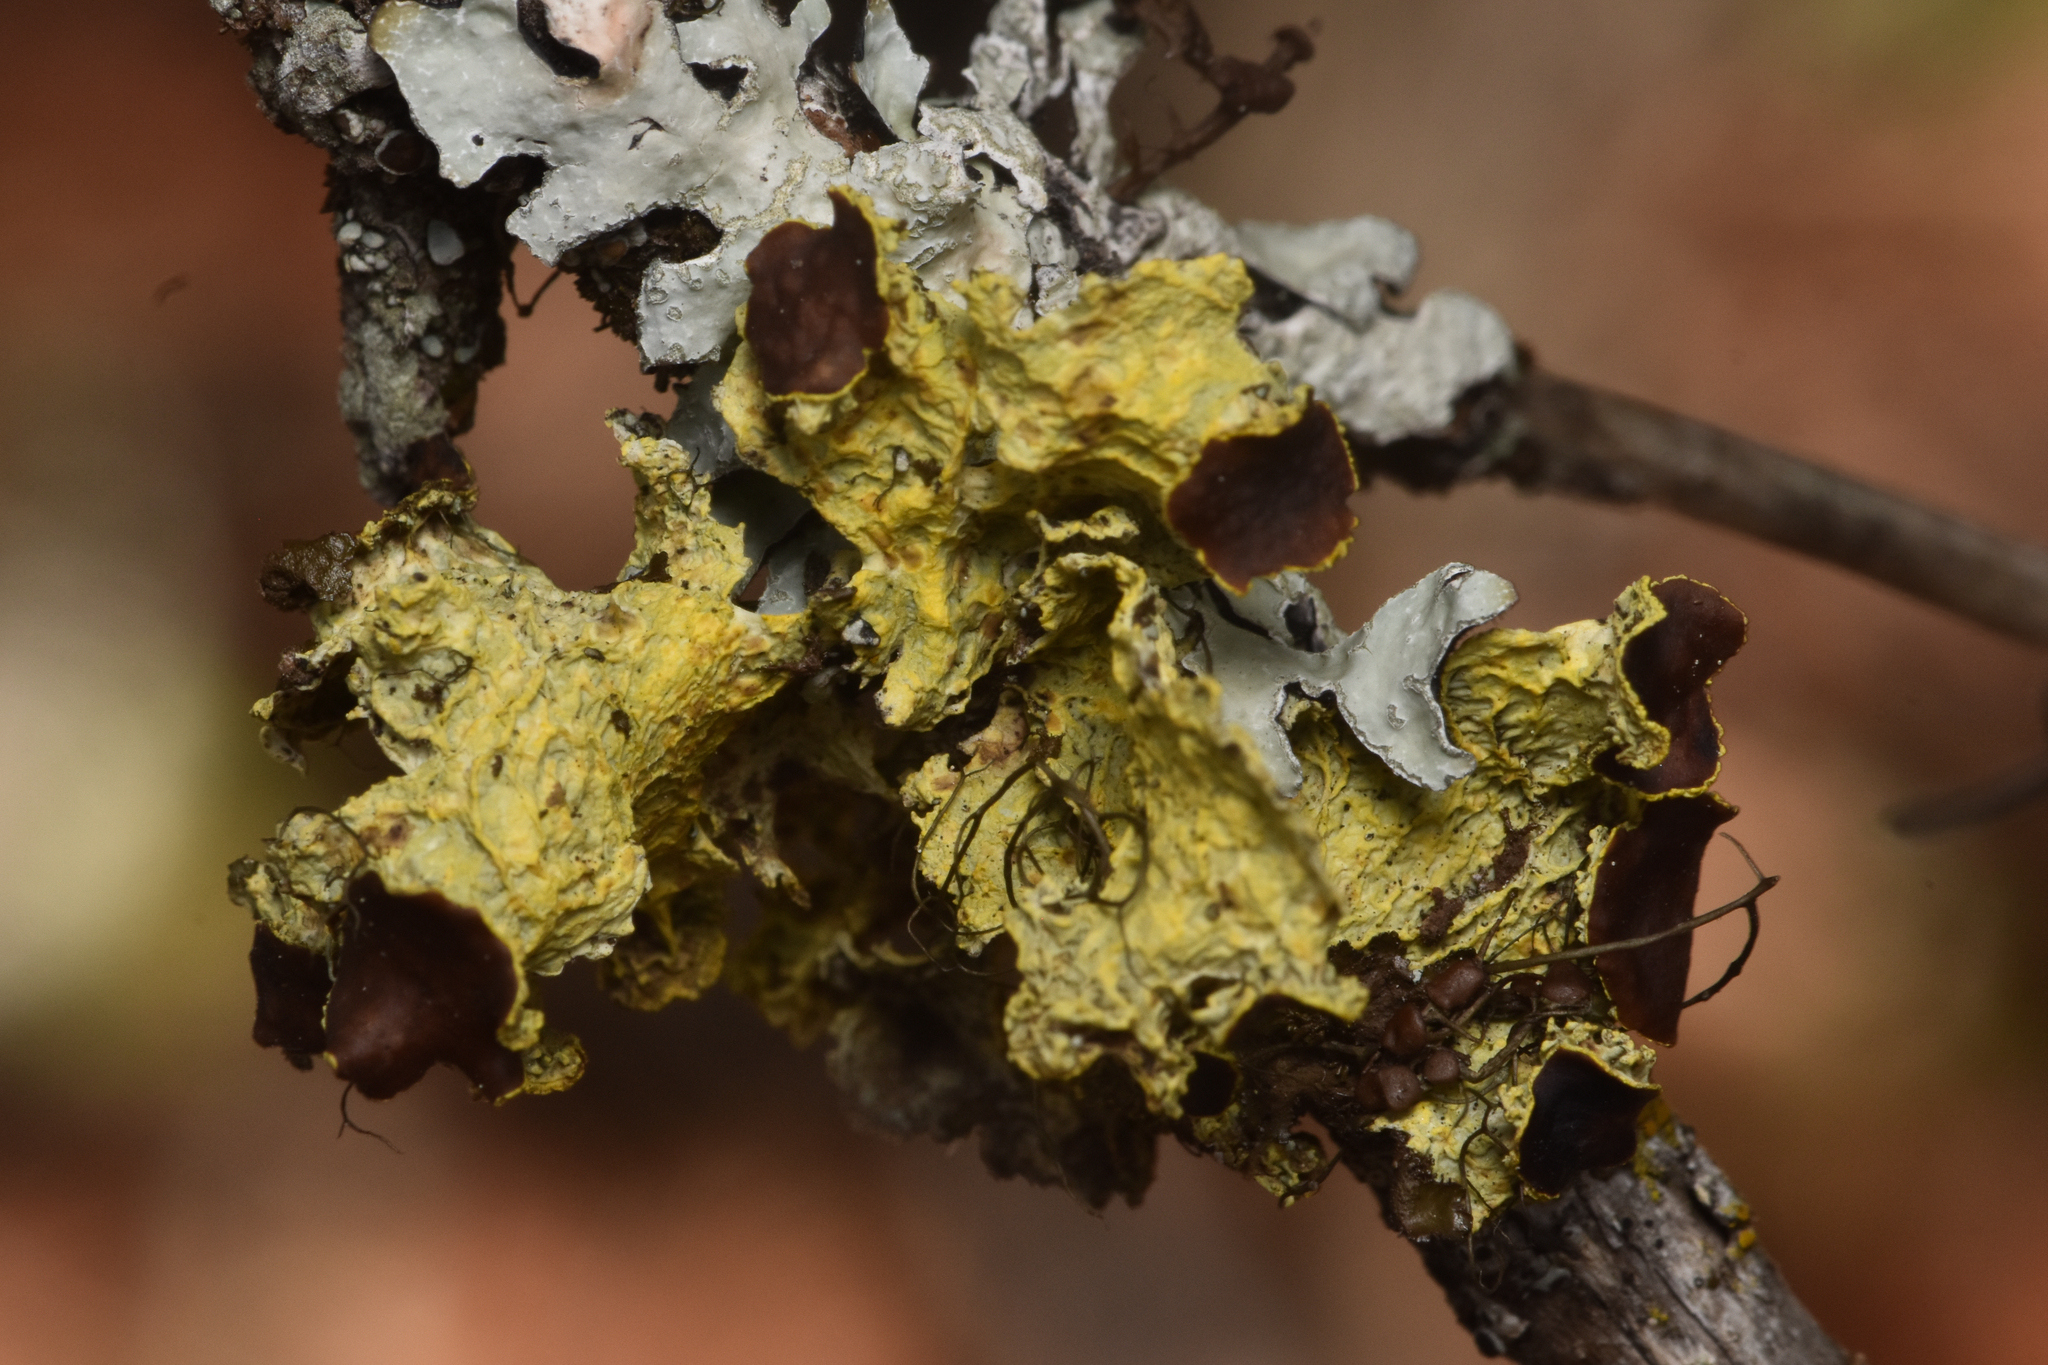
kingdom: Fungi
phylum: Ascomycota
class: Lecanoromycetes
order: Lecanorales
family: Parmeliaceae
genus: Vulpicida
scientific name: Vulpicida canadensis
